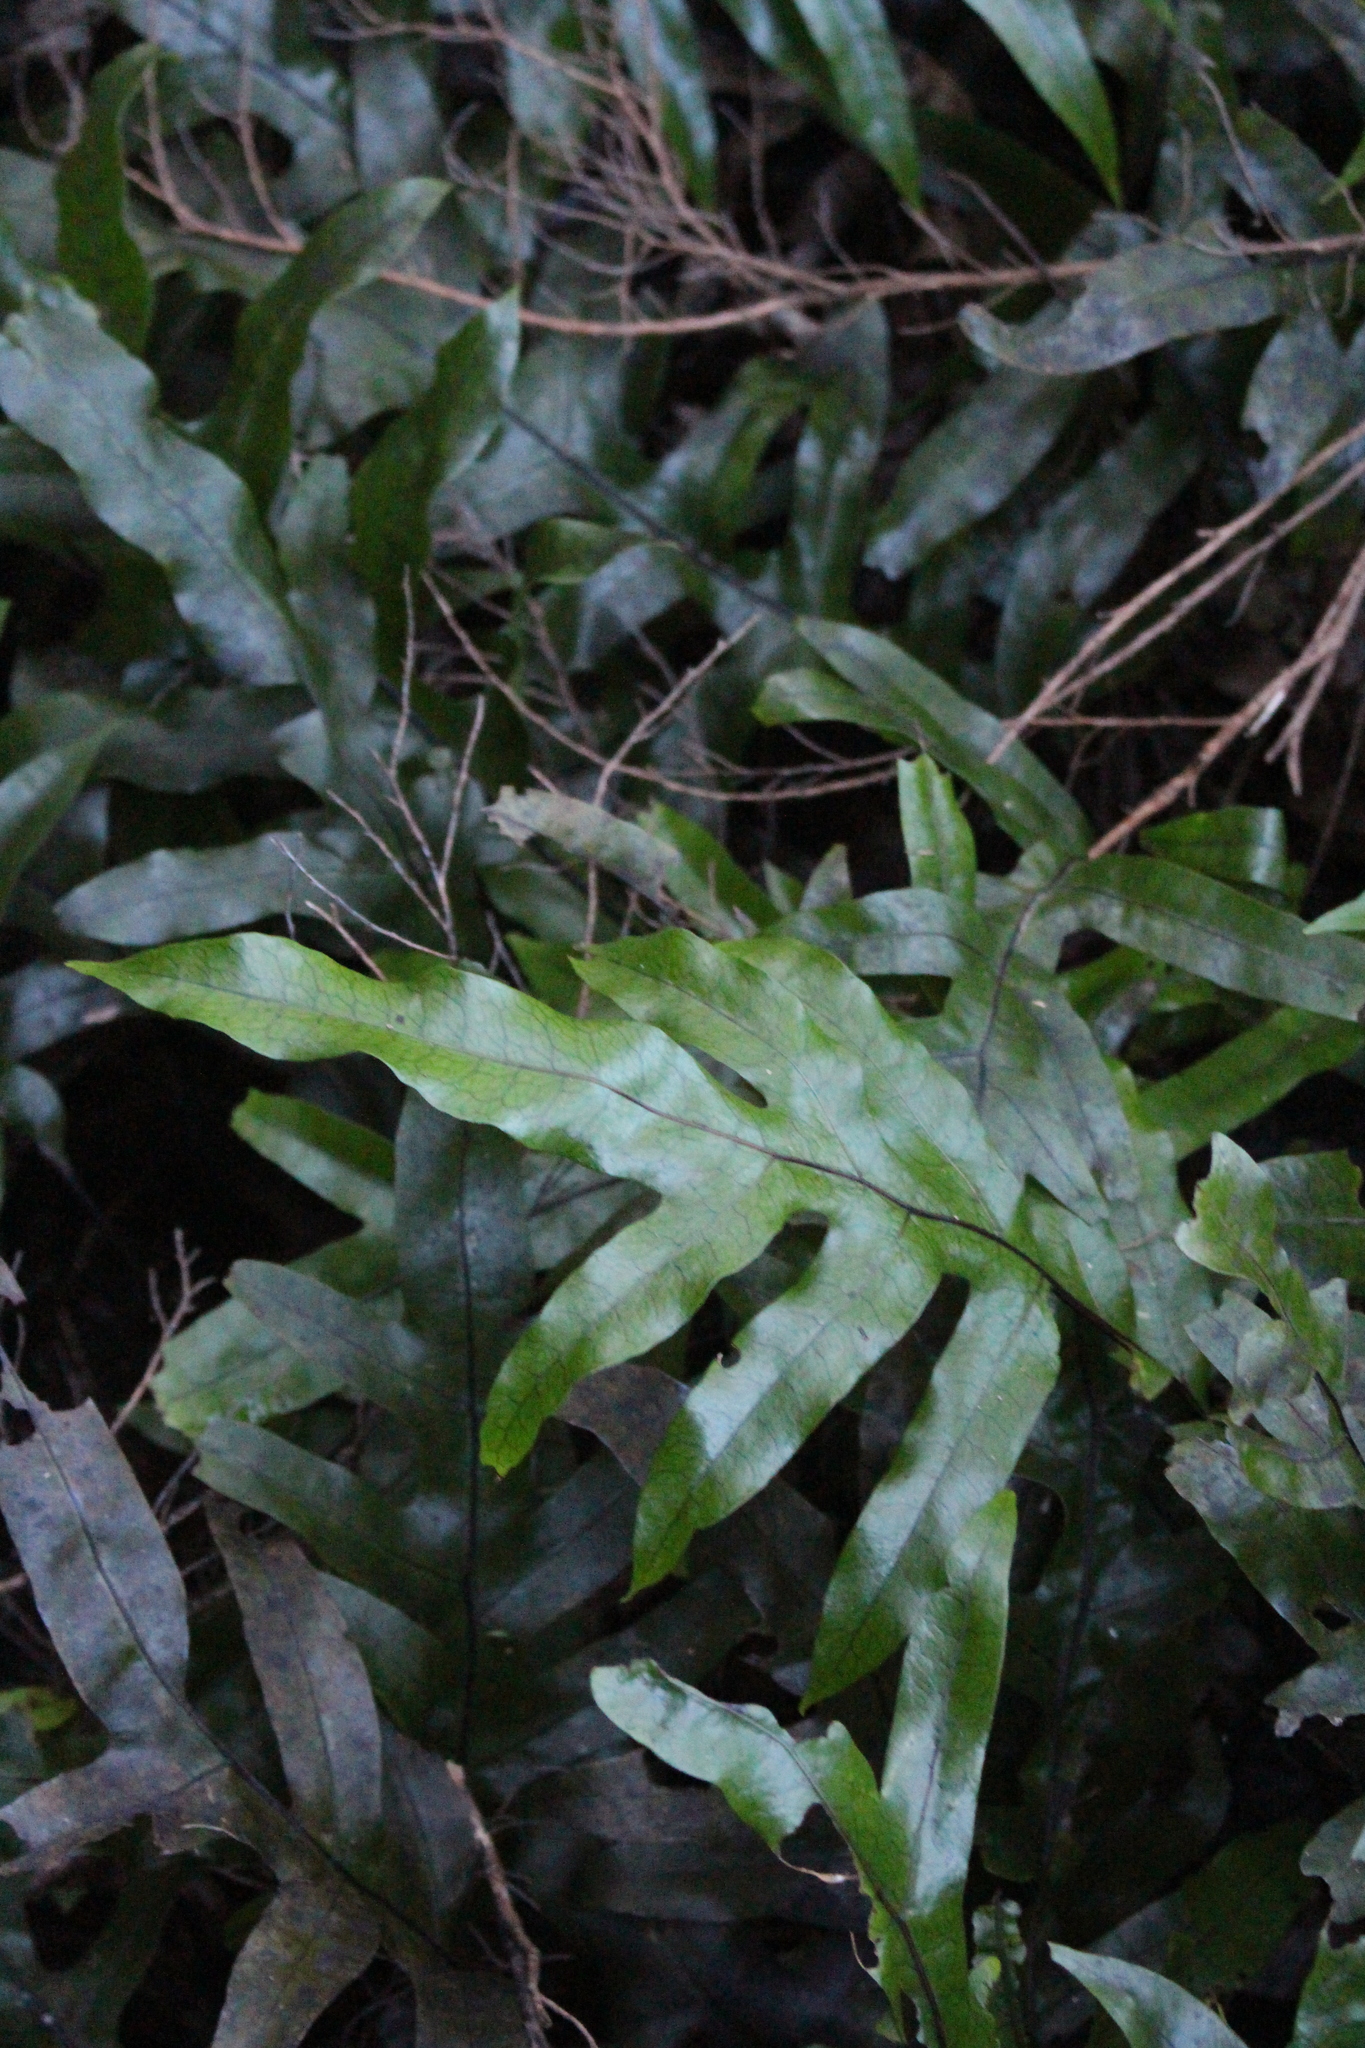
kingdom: Plantae
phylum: Tracheophyta
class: Polypodiopsida
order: Polypodiales
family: Polypodiaceae
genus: Lecanopteris
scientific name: Lecanopteris pustulata
